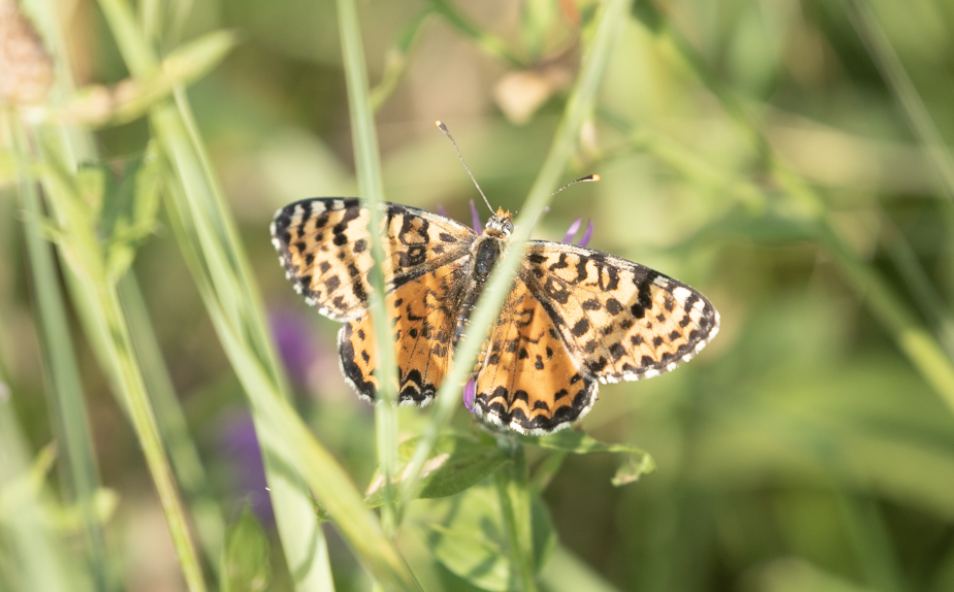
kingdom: Animalia
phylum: Arthropoda
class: Insecta
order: Lepidoptera
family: Nymphalidae
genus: Melitaea
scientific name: Melitaea didyma
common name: Spotted fritillary
